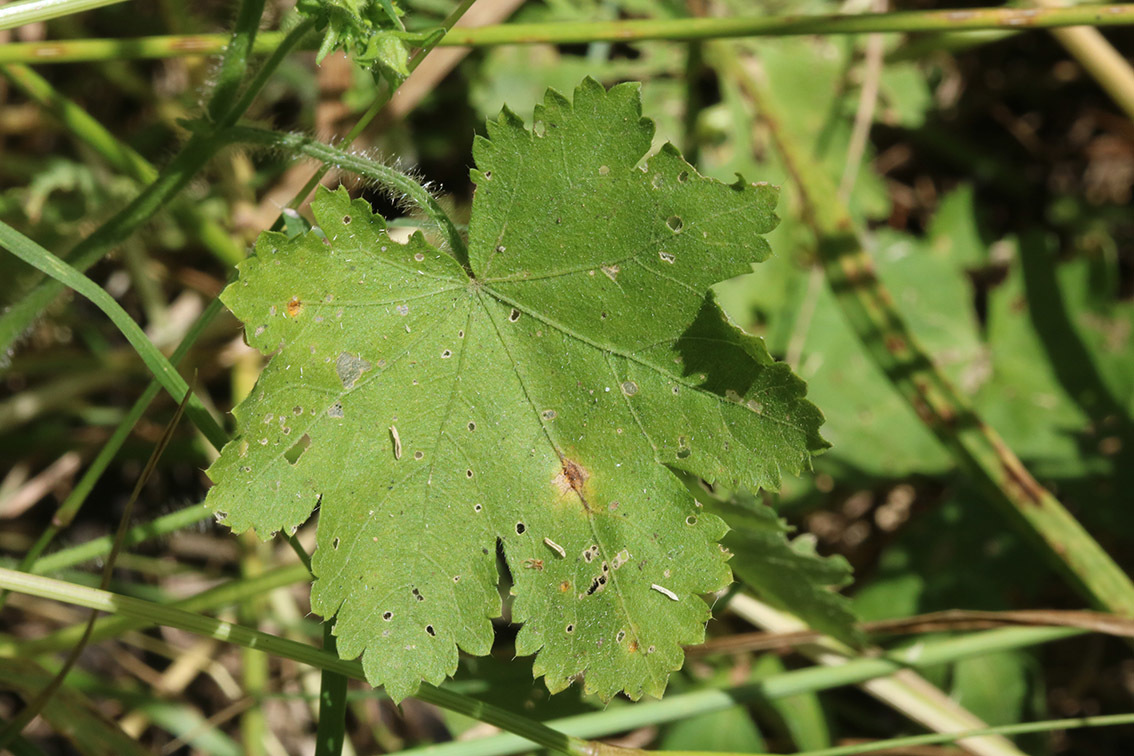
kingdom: Plantae
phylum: Tracheophyta
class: Magnoliopsida
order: Malvales
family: Malvaceae
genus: Modiolastrum
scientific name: Modiolastrum malvifolium
